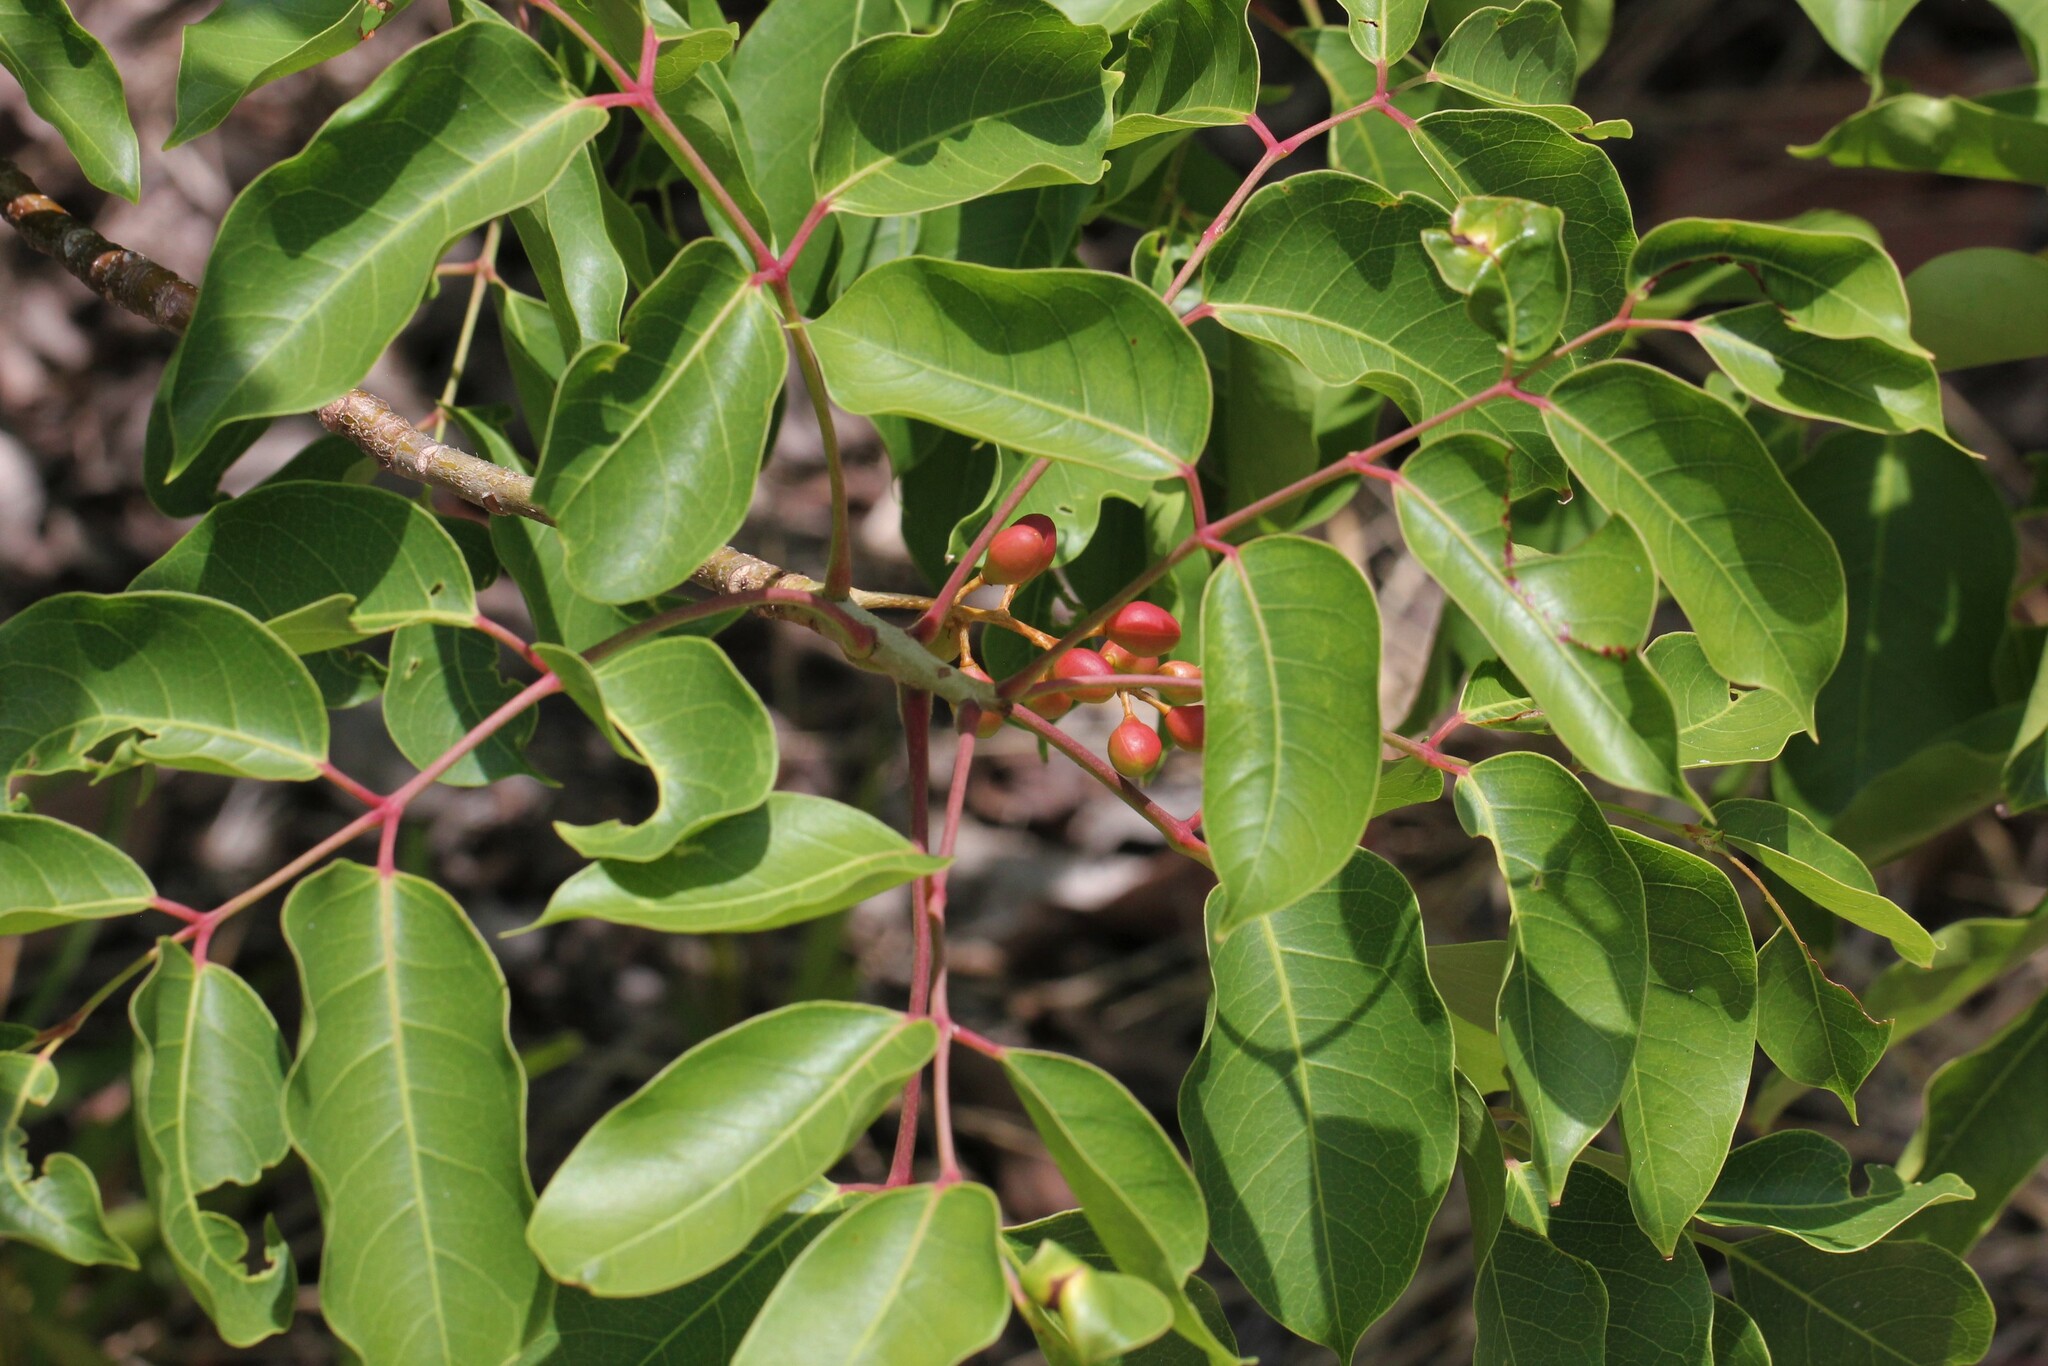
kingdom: Plantae
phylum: Tracheophyta
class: Magnoliopsida
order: Sapindales
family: Burseraceae
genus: Bursera
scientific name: Bursera simaruba
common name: Turpentine tree
